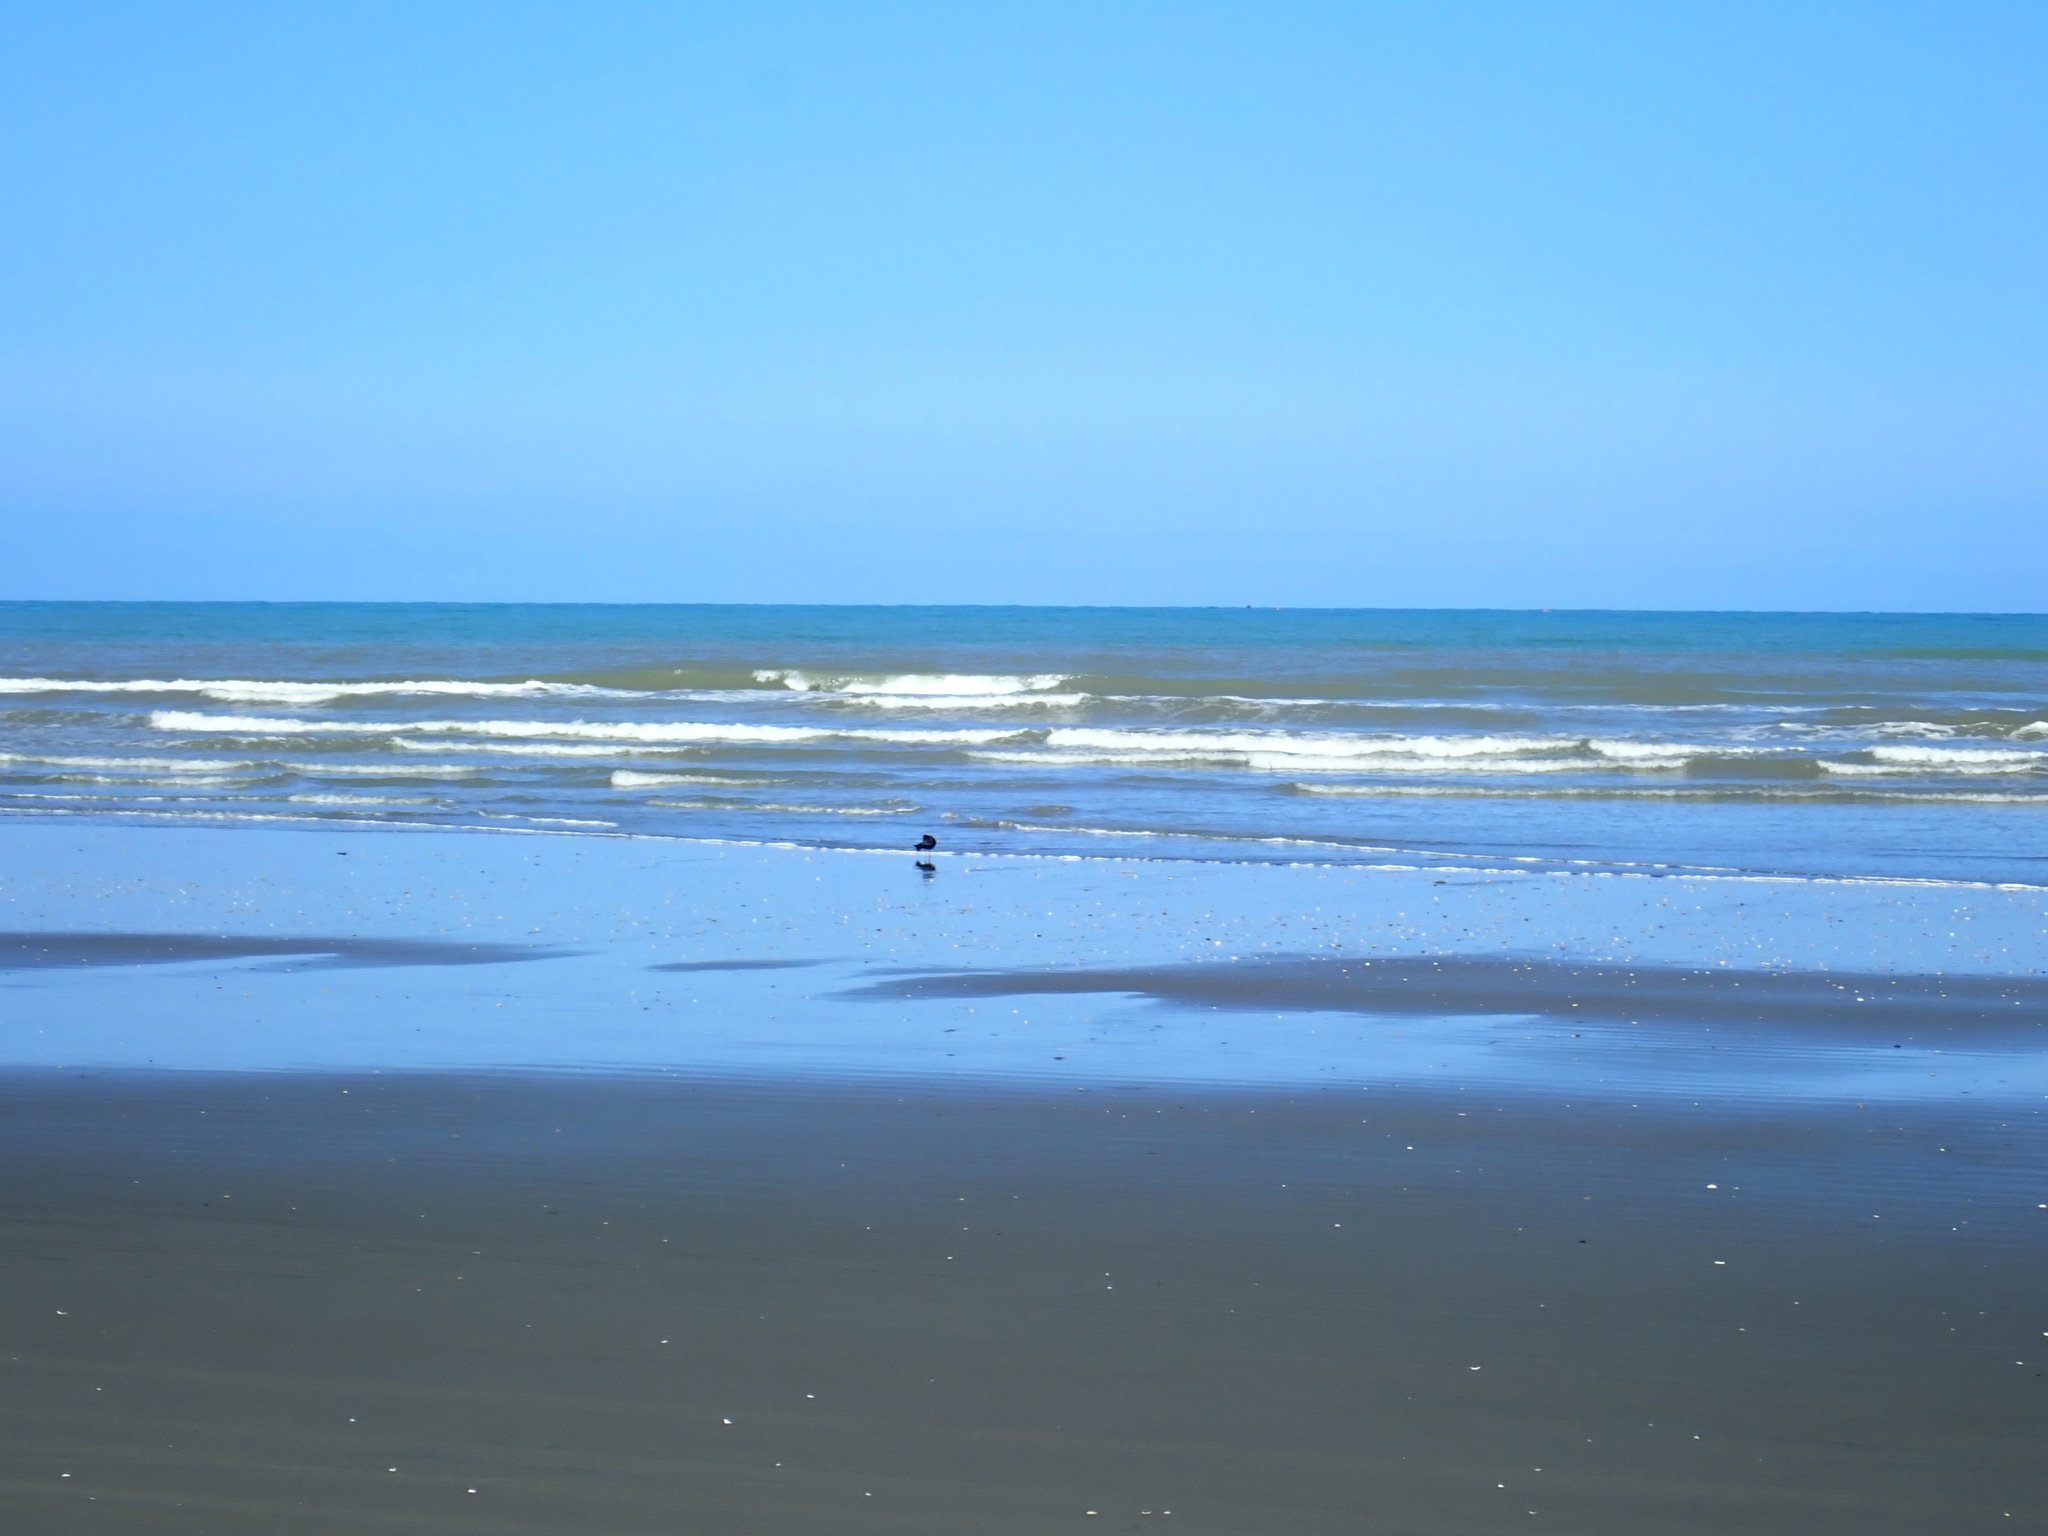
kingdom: Animalia
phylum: Chordata
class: Aves
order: Charadriiformes
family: Haematopodidae
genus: Haematopus
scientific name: Haematopus unicolor
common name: Variable oystercatcher
